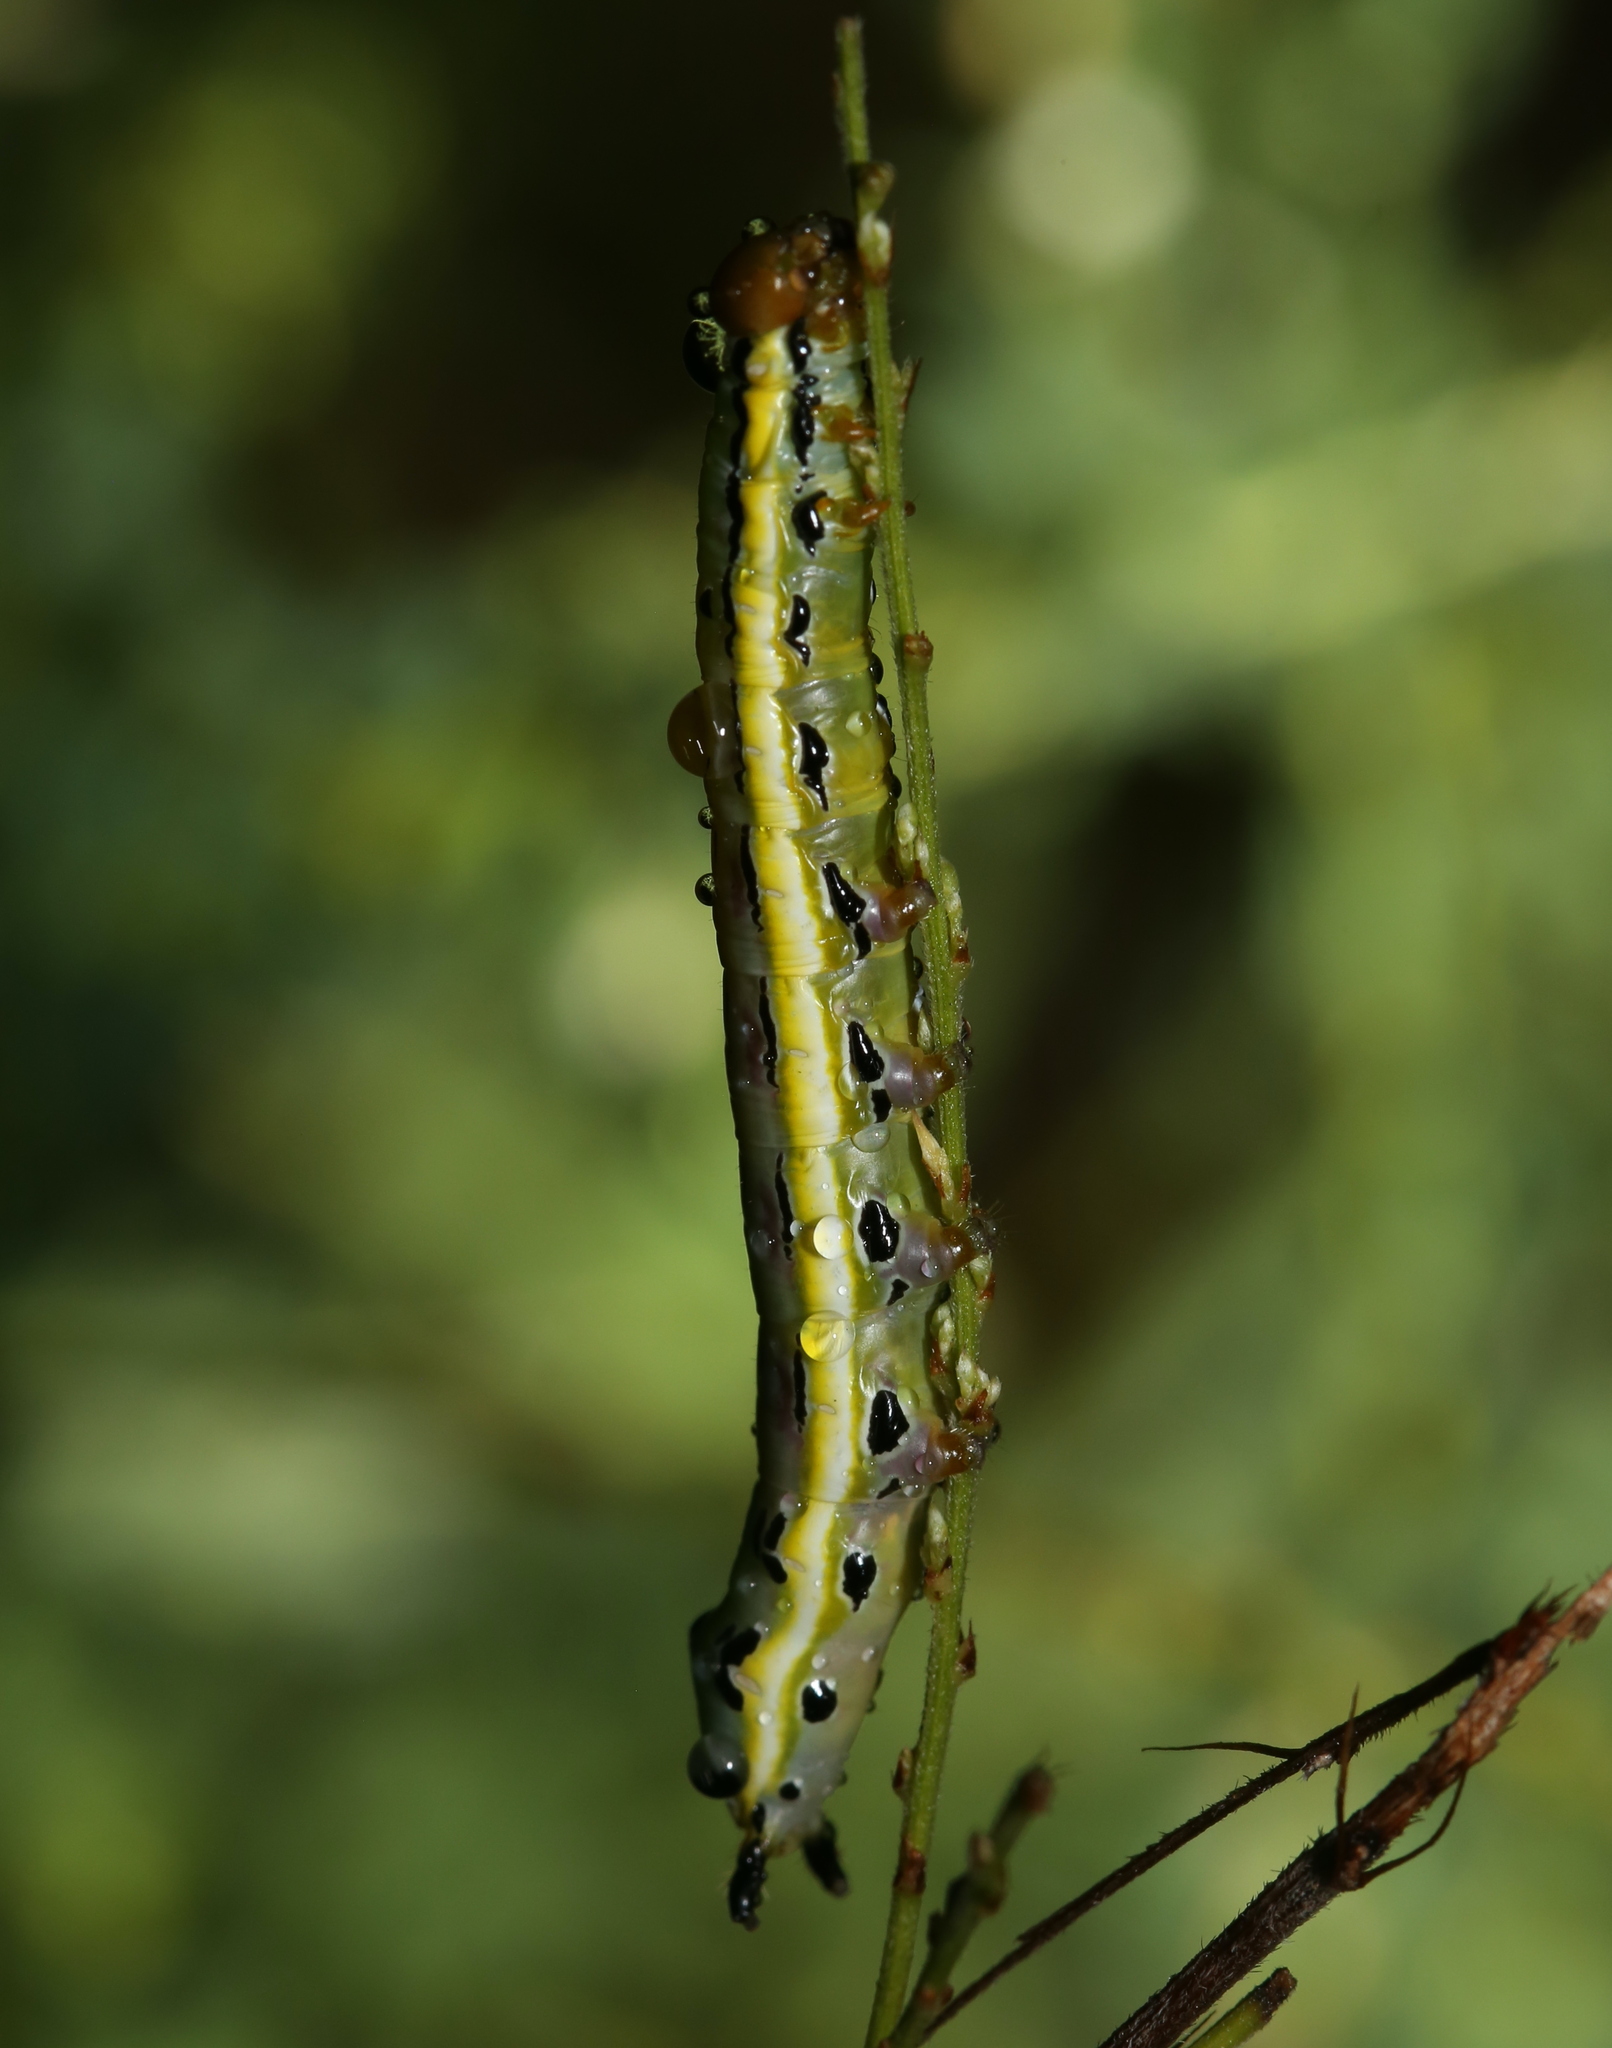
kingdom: Animalia
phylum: Arthropoda
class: Insecta
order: Lepidoptera
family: Notodontidae
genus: Dasylophia
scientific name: Dasylophia anguina
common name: Black-spotted prominent
